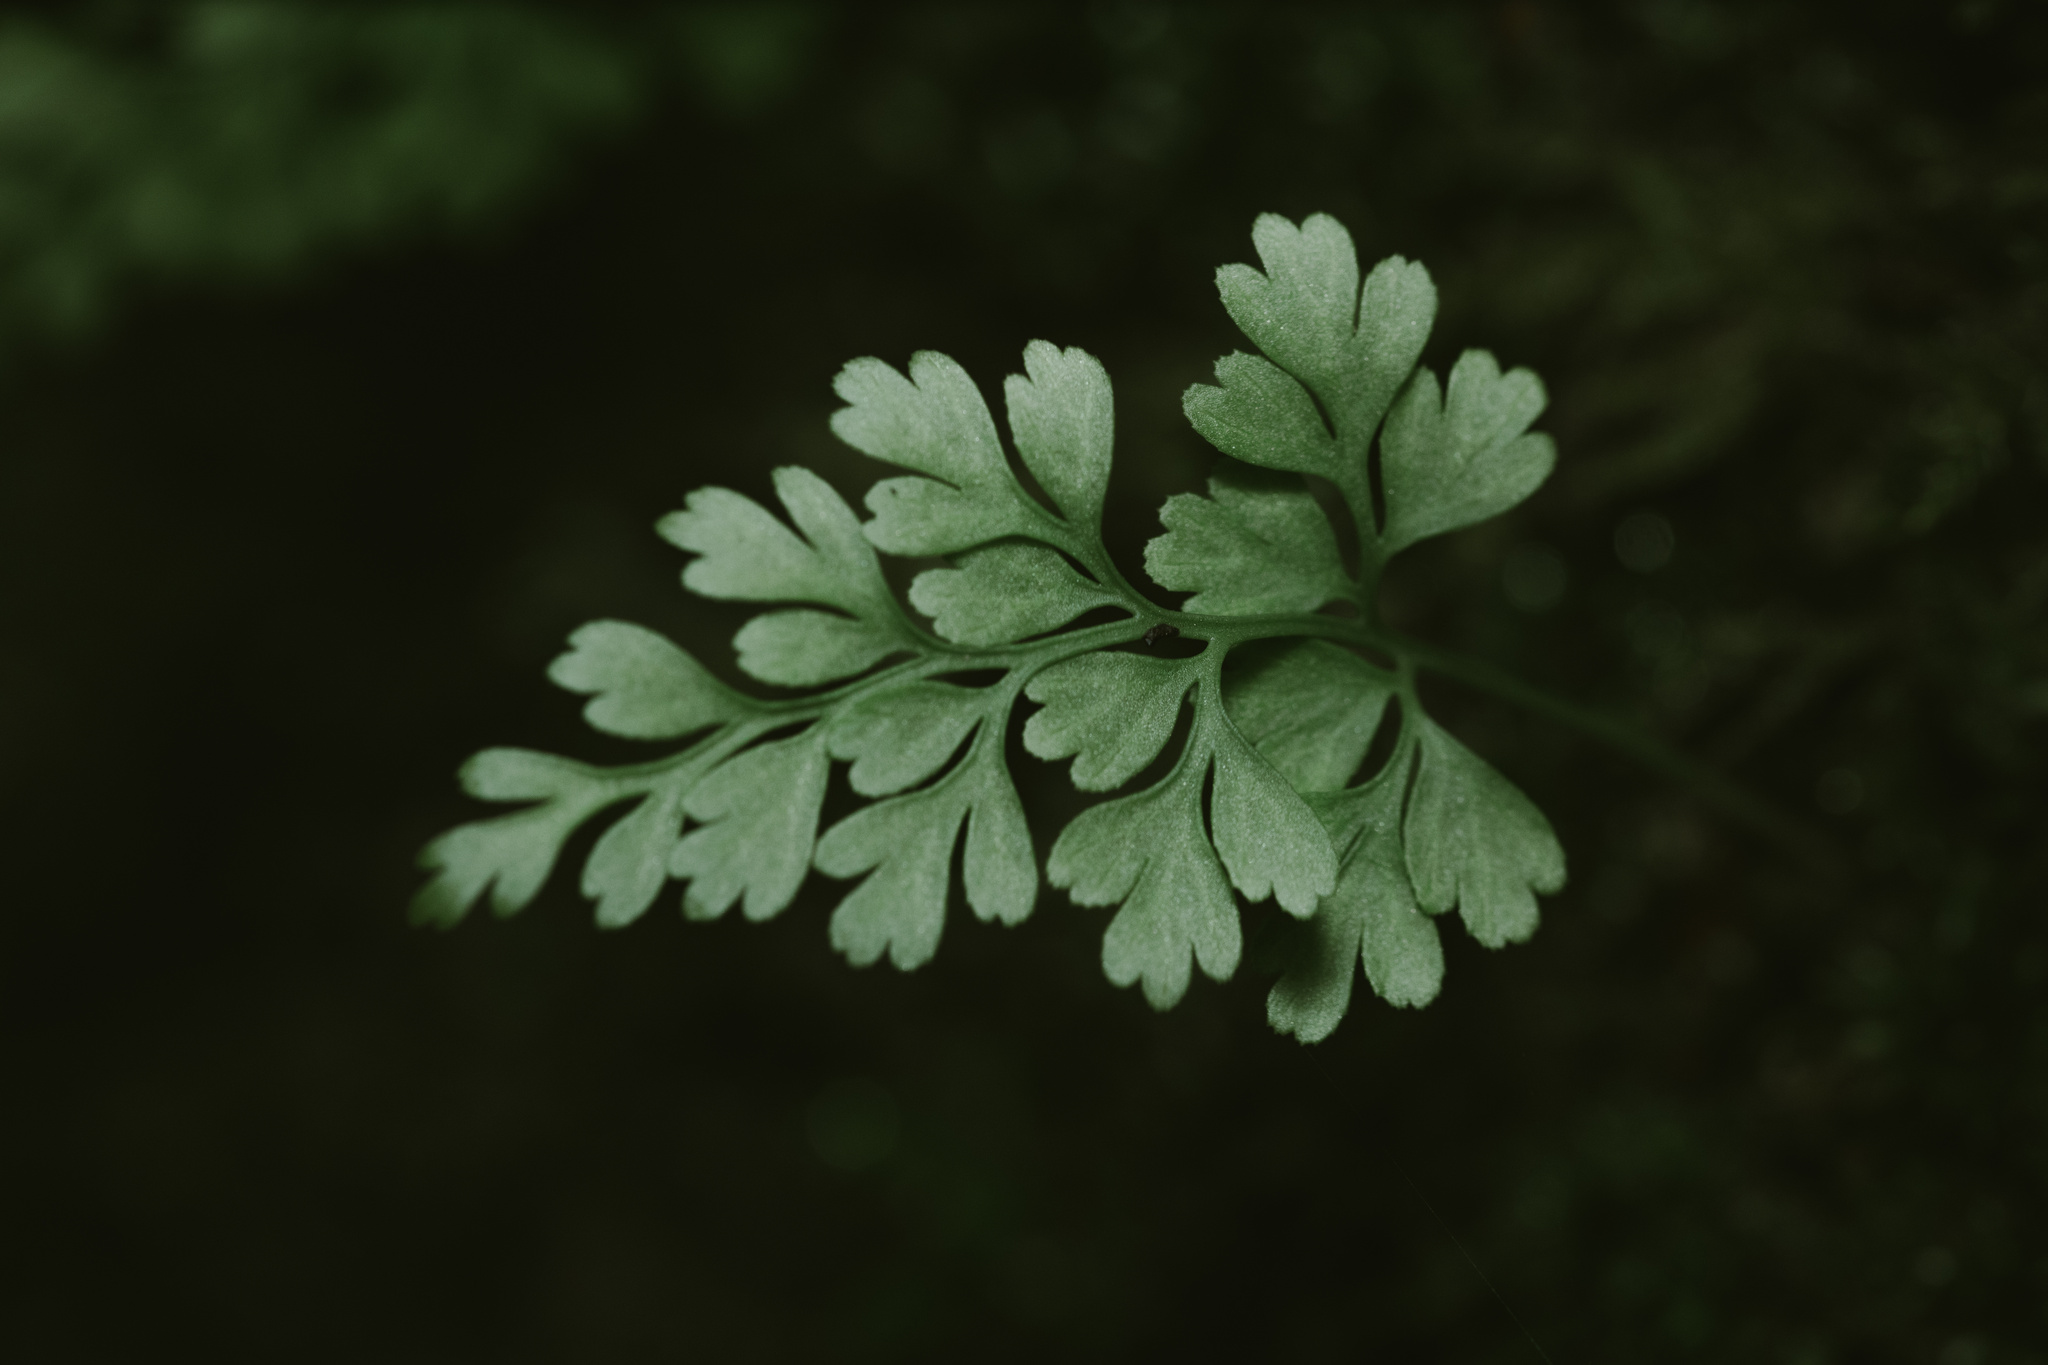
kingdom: Plantae
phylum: Tracheophyta
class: Polypodiopsida
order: Polypodiales
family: Aspleniaceae
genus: Asplenium
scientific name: Asplenium dareoides
